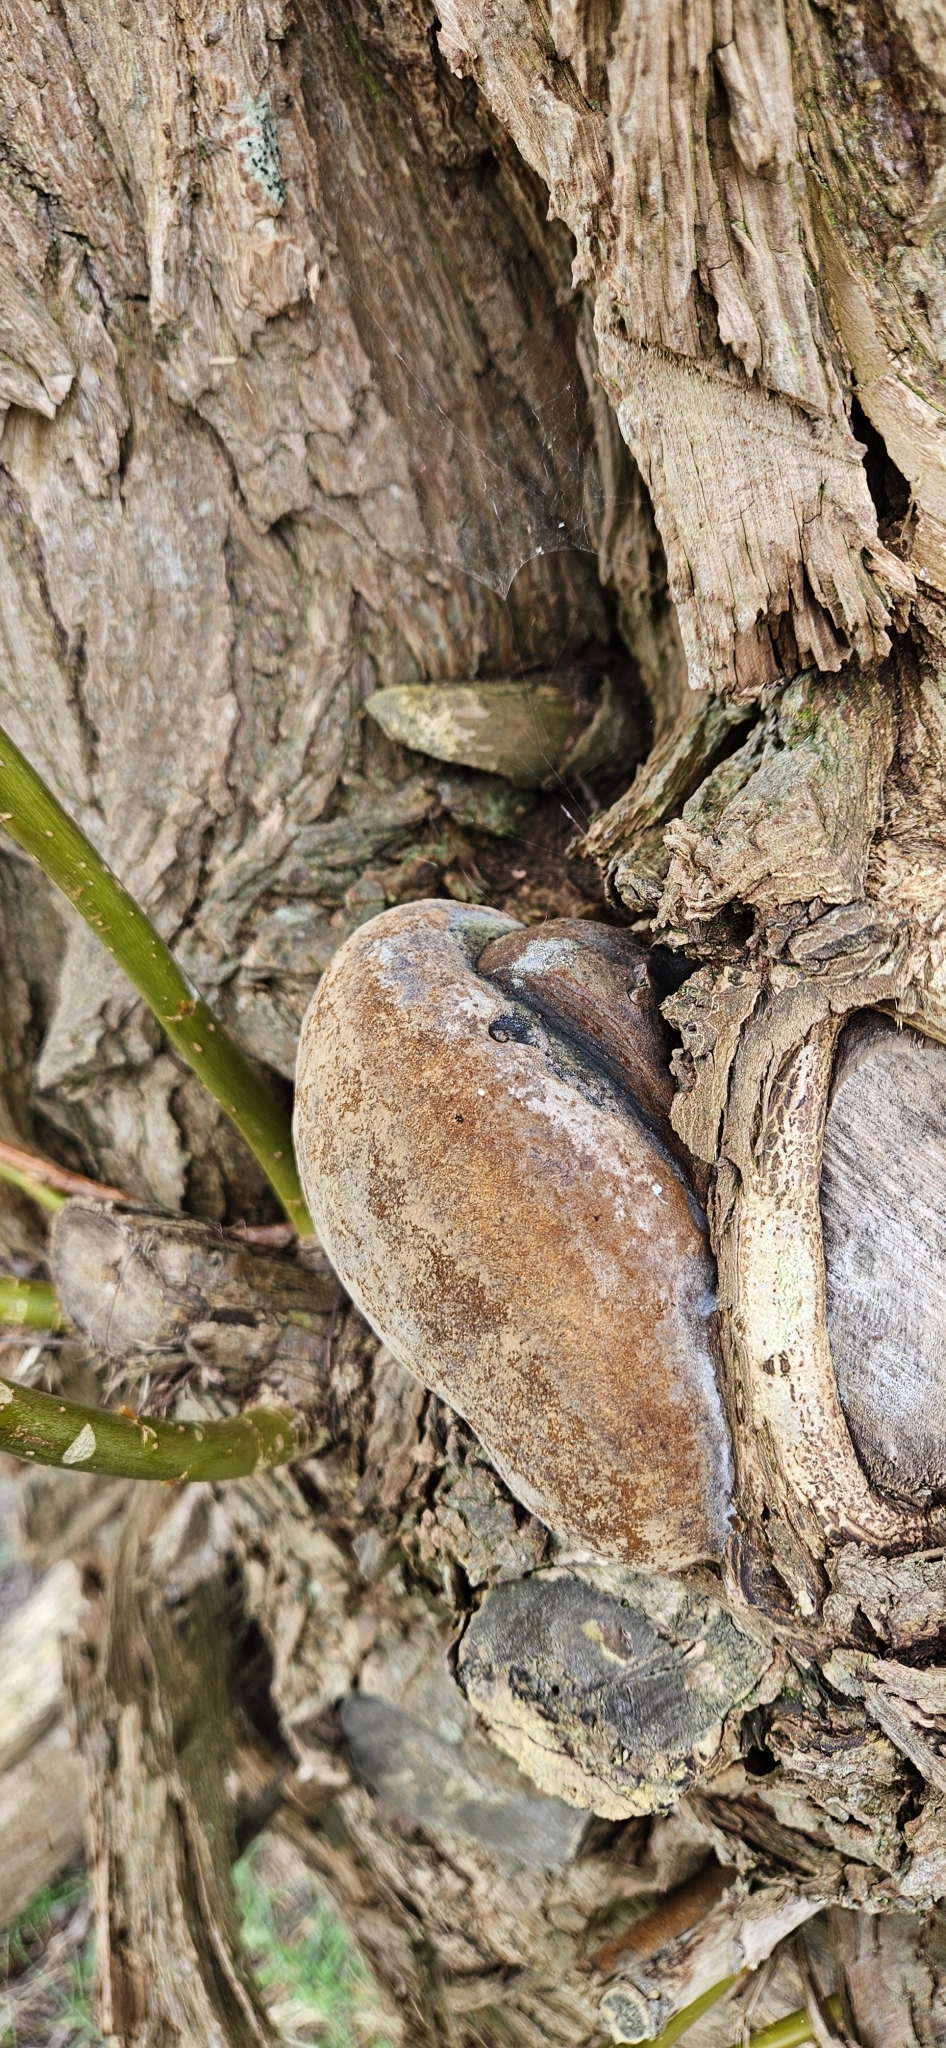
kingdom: Fungi
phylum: Basidiomycota
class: Agaricomycetes
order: Hymenochaetales
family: Hymenochaetaceae
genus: Phellinus
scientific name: Phellinus igniarius
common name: Willow bracket
